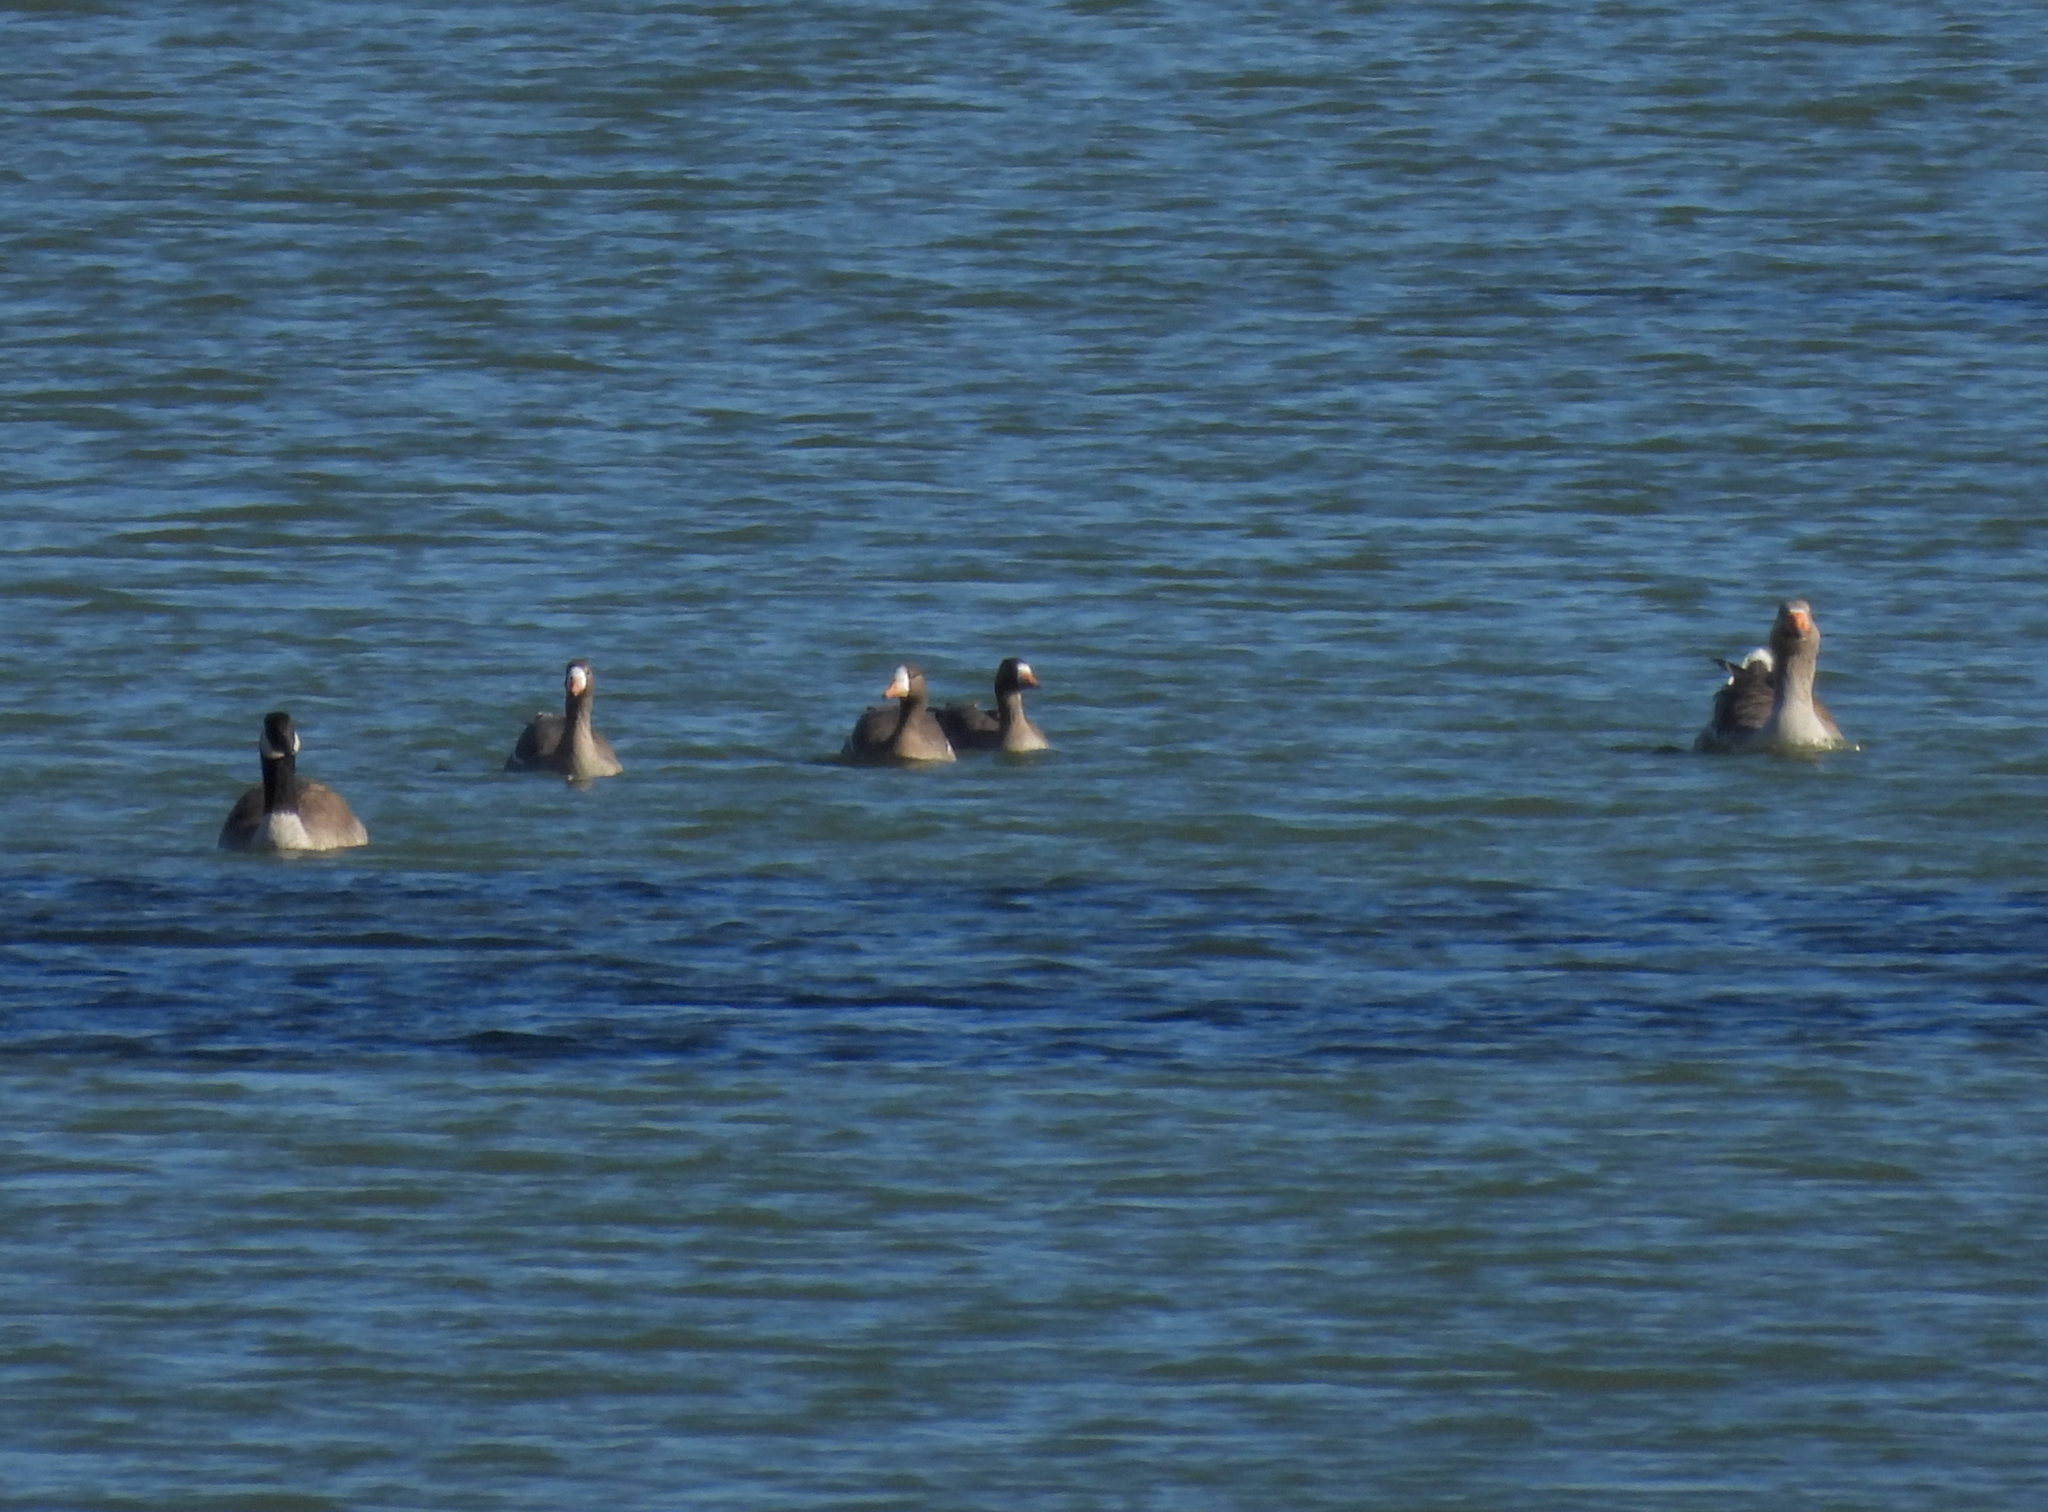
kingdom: Animalia
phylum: Chordata
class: Aves
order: Anseriformes
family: Anatidae
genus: Branta
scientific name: Branta canadensis
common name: Canada goose
